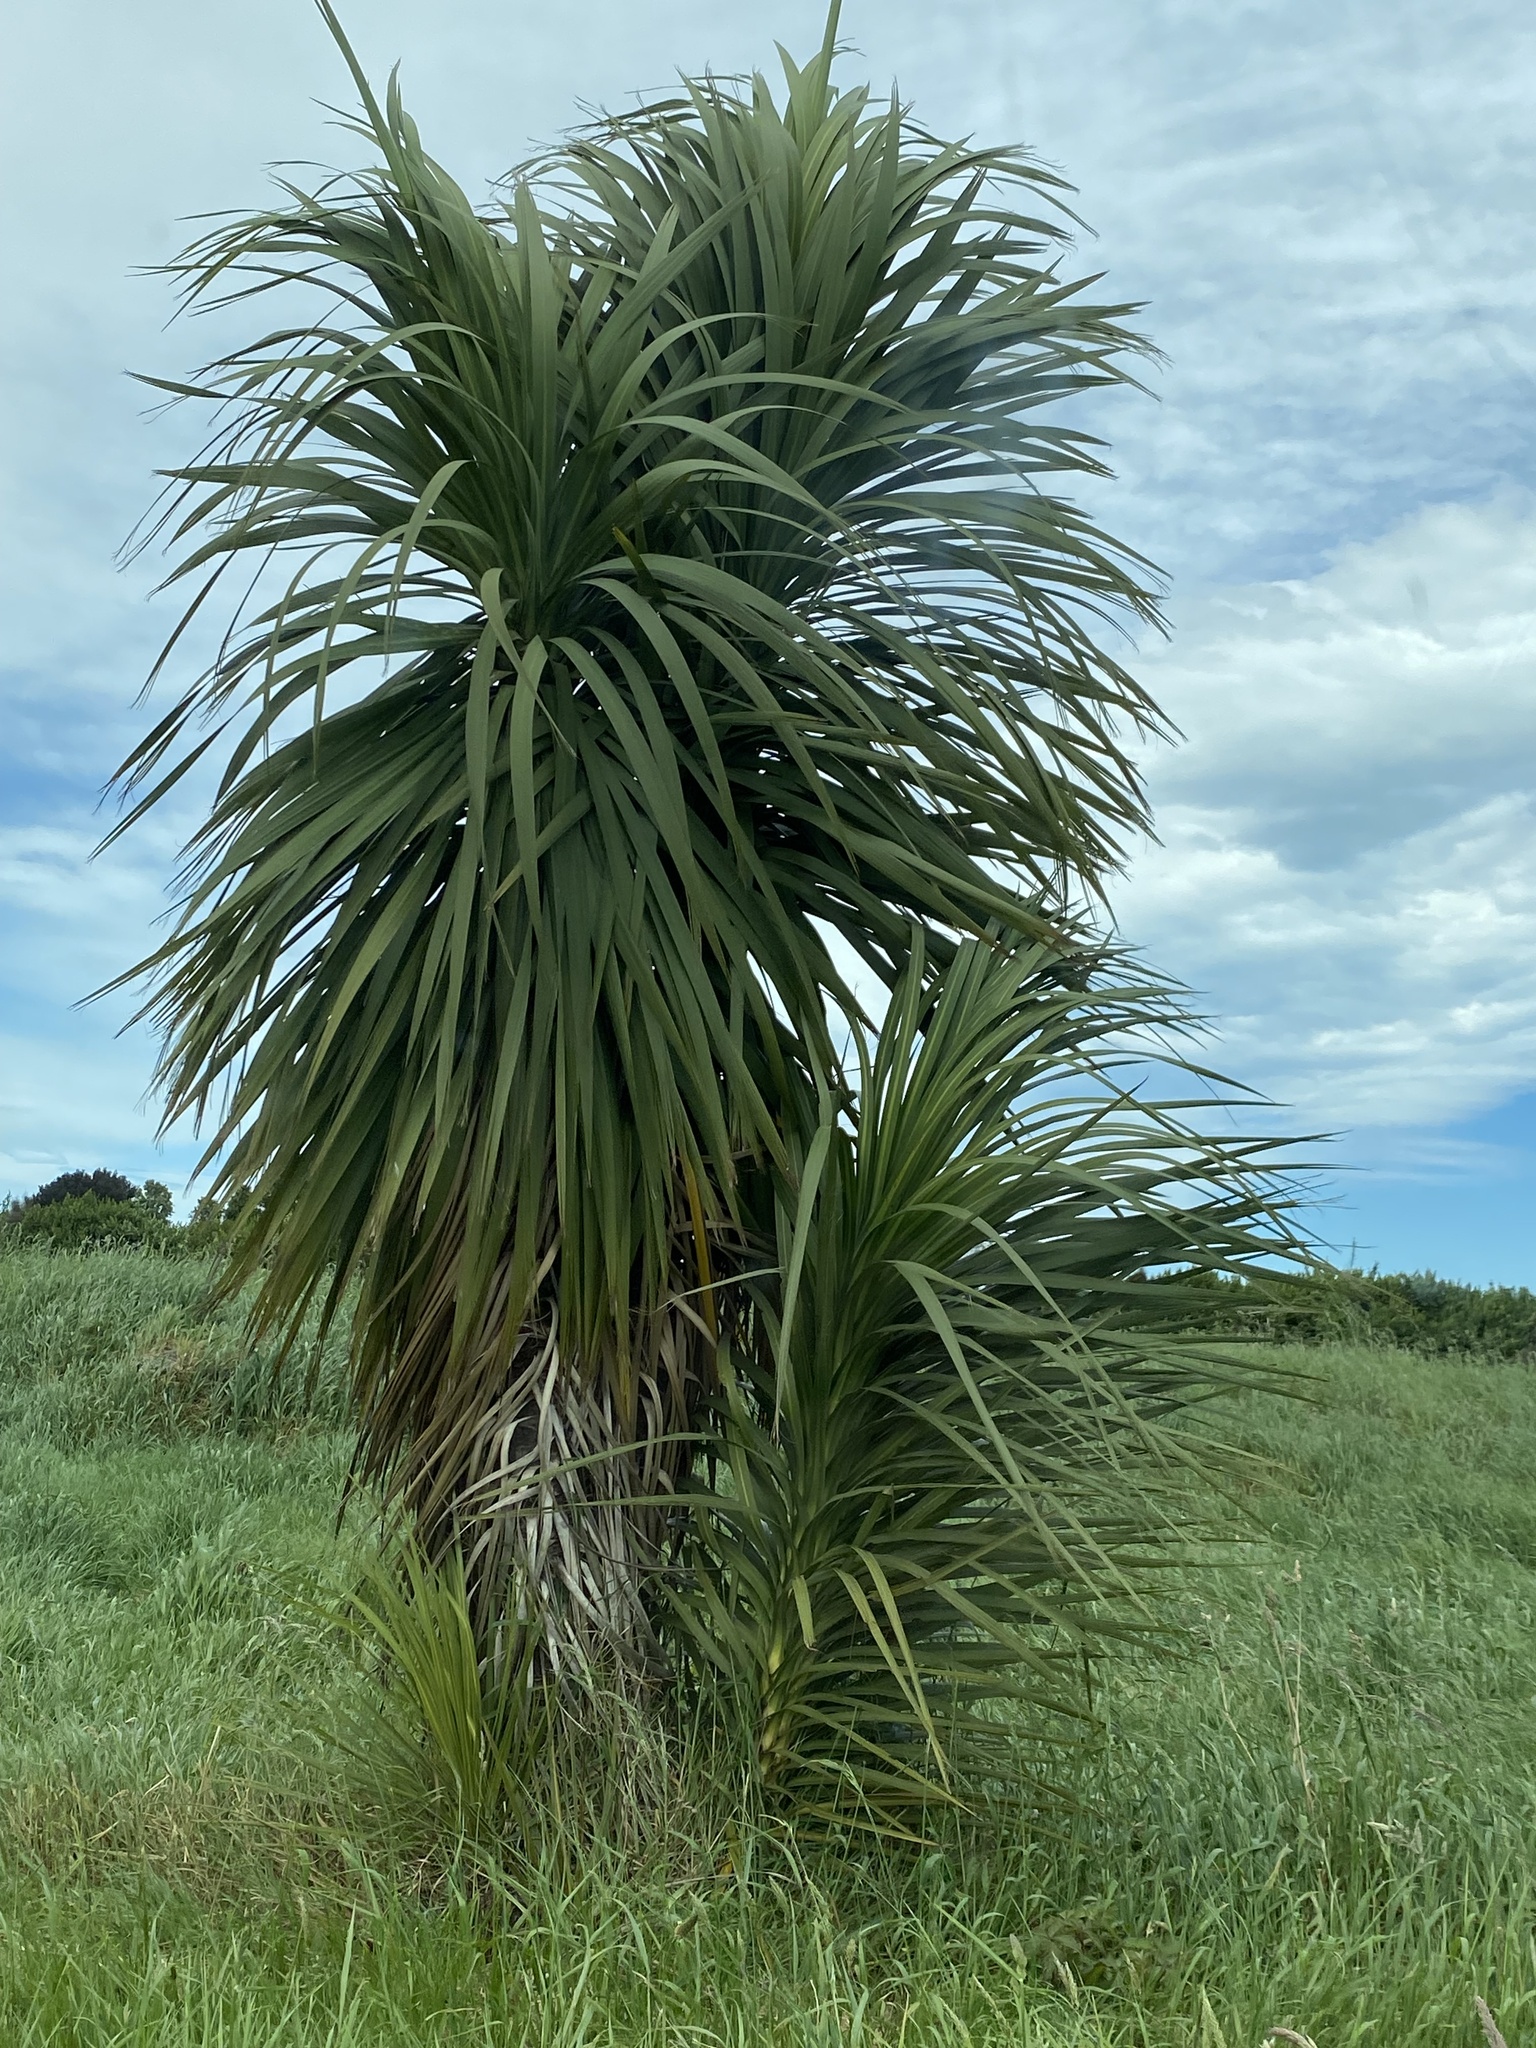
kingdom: Plantae
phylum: Tracheophyta
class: Liliopsida
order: Asparagales
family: Asparagaceae
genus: Cordyline
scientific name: Cordyline australis
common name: Cabbage-palm
